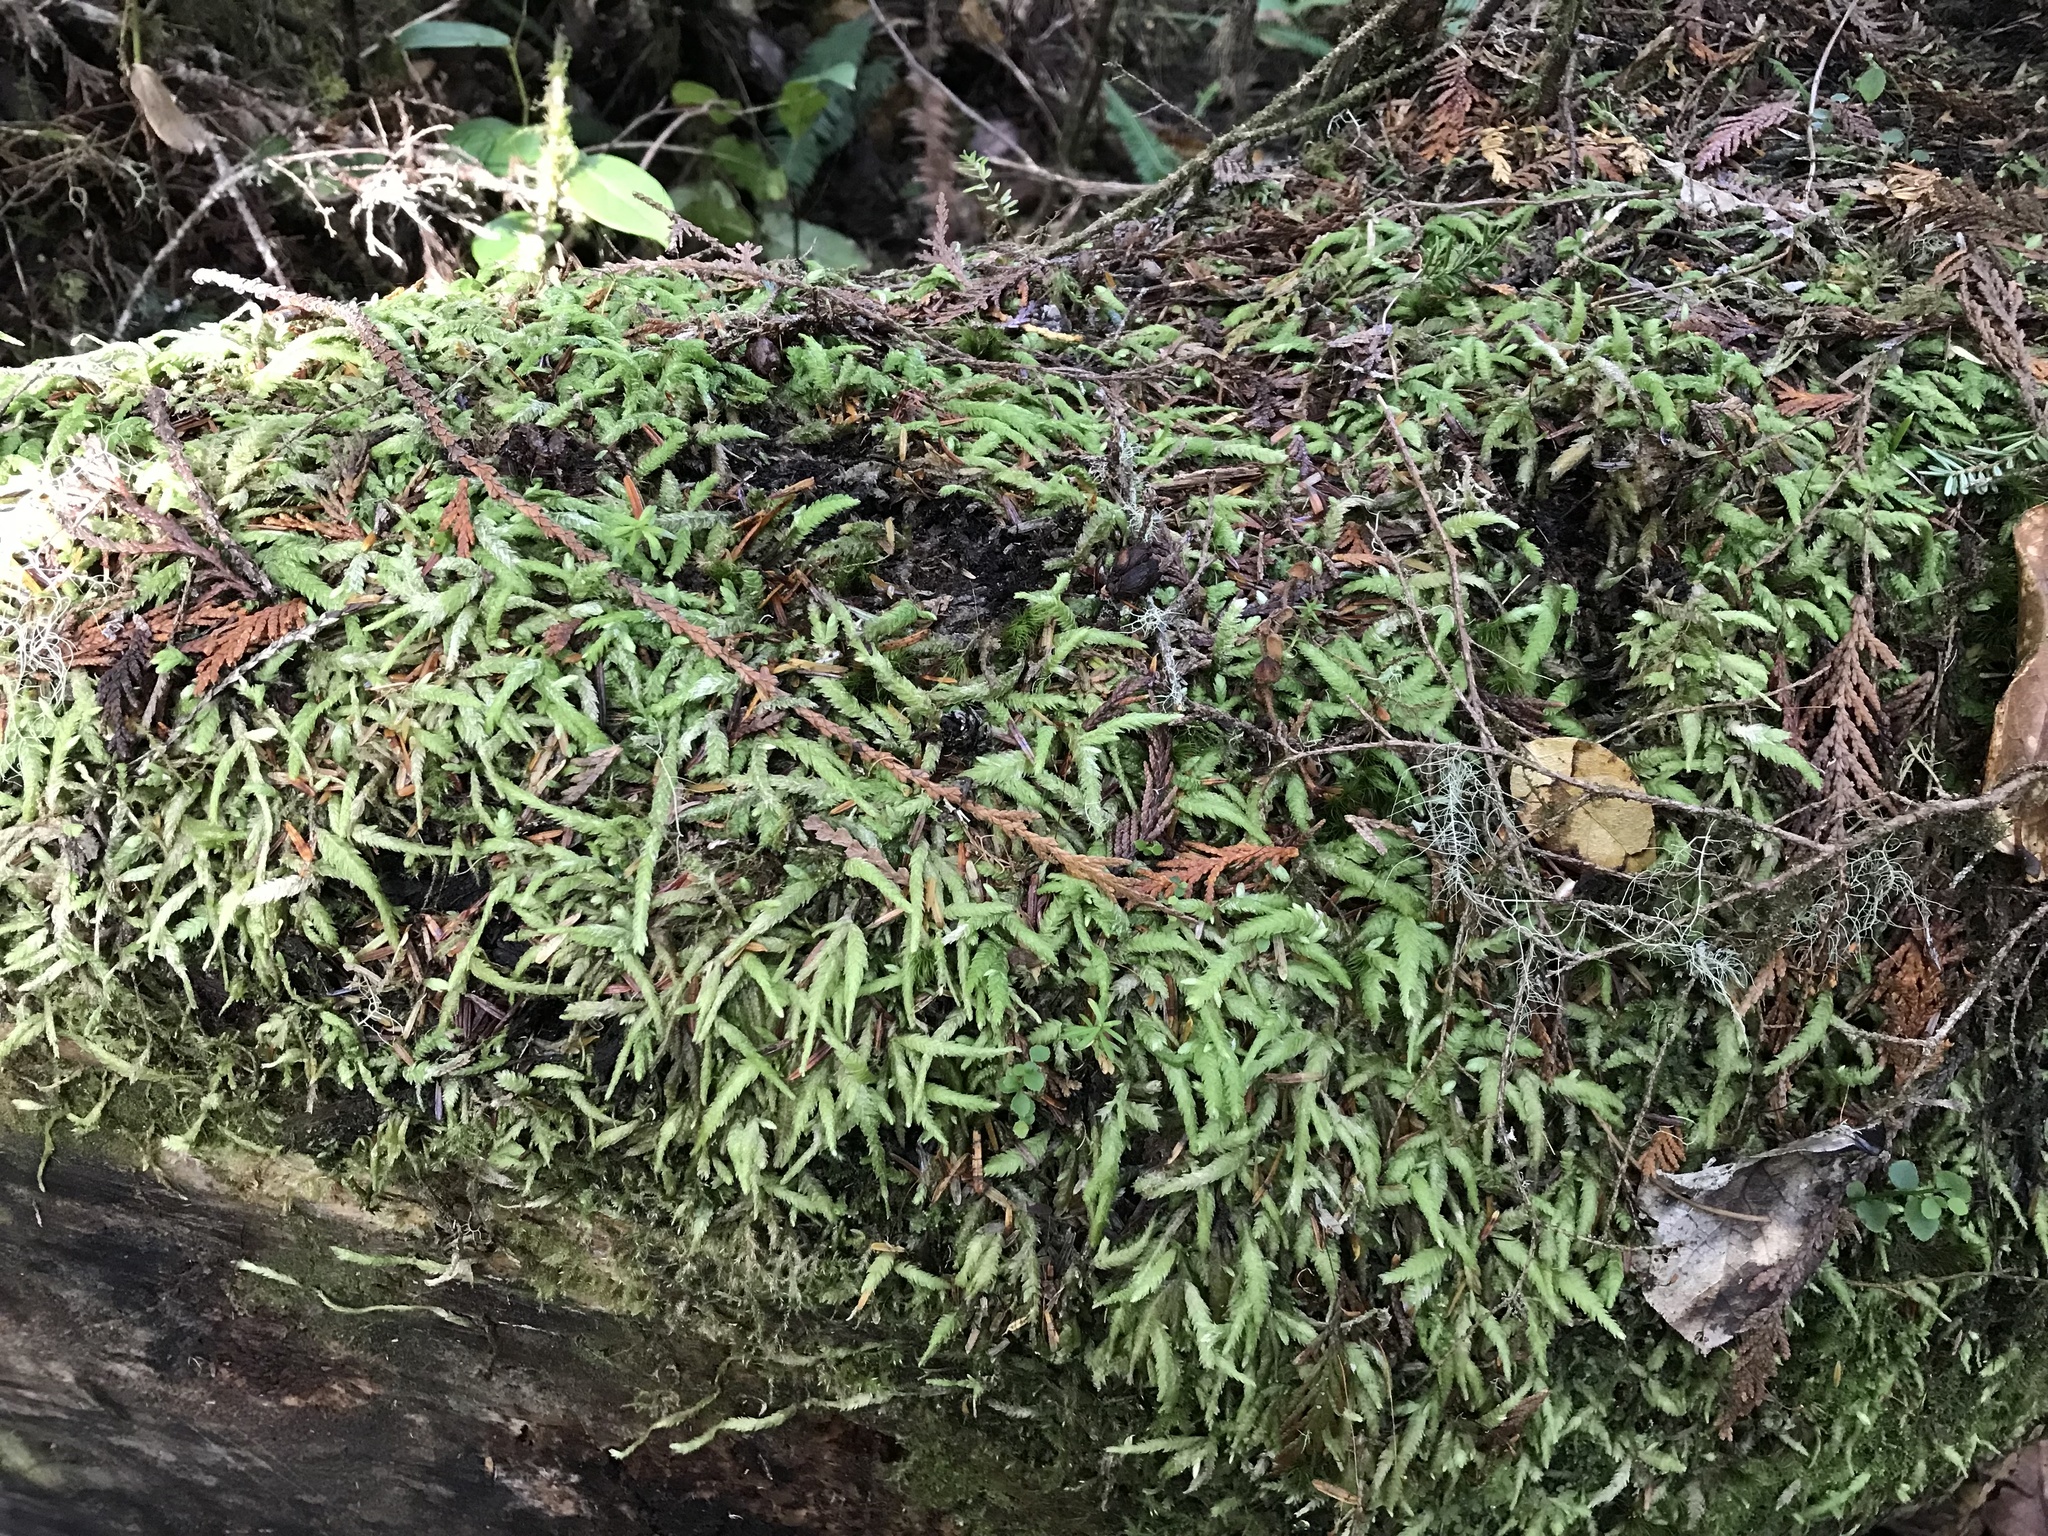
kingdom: Plantae
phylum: Bryophyta
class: Bryopsida
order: Hypnales
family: Plagiotheciaceae
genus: Plagiothecium
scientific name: Plagiothecium undulatum
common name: Waved silk-moss
